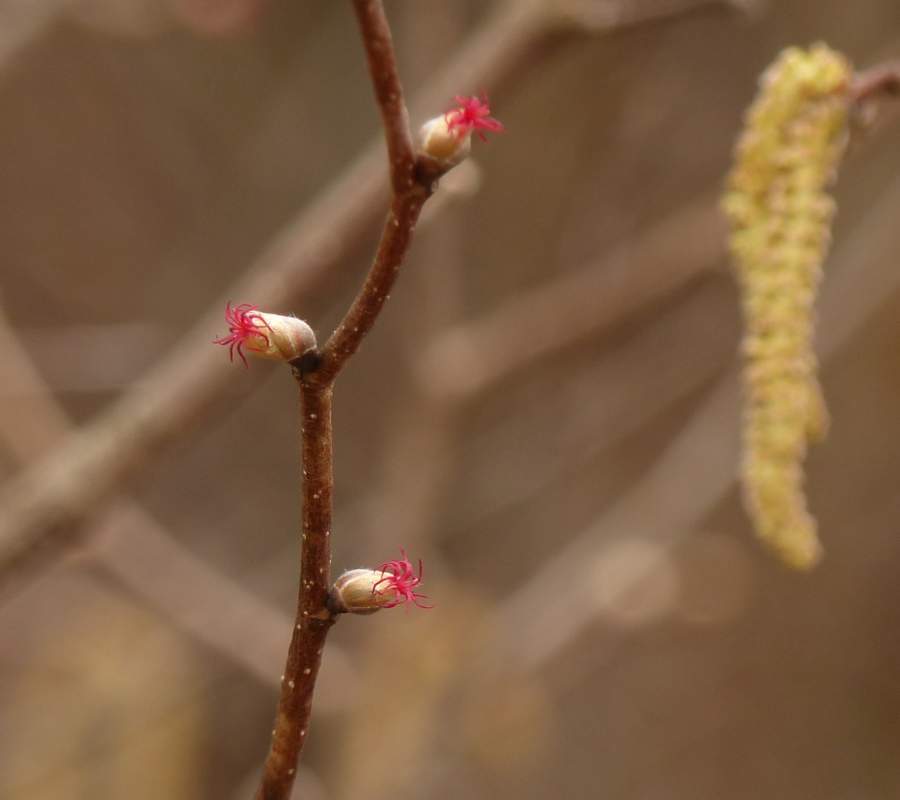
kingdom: Plantae
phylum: Tracheophyta
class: Magnoliopsida
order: Fagales
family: Betulaceae
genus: Corylus
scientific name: Corylus cornuta
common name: Beaked hazel
